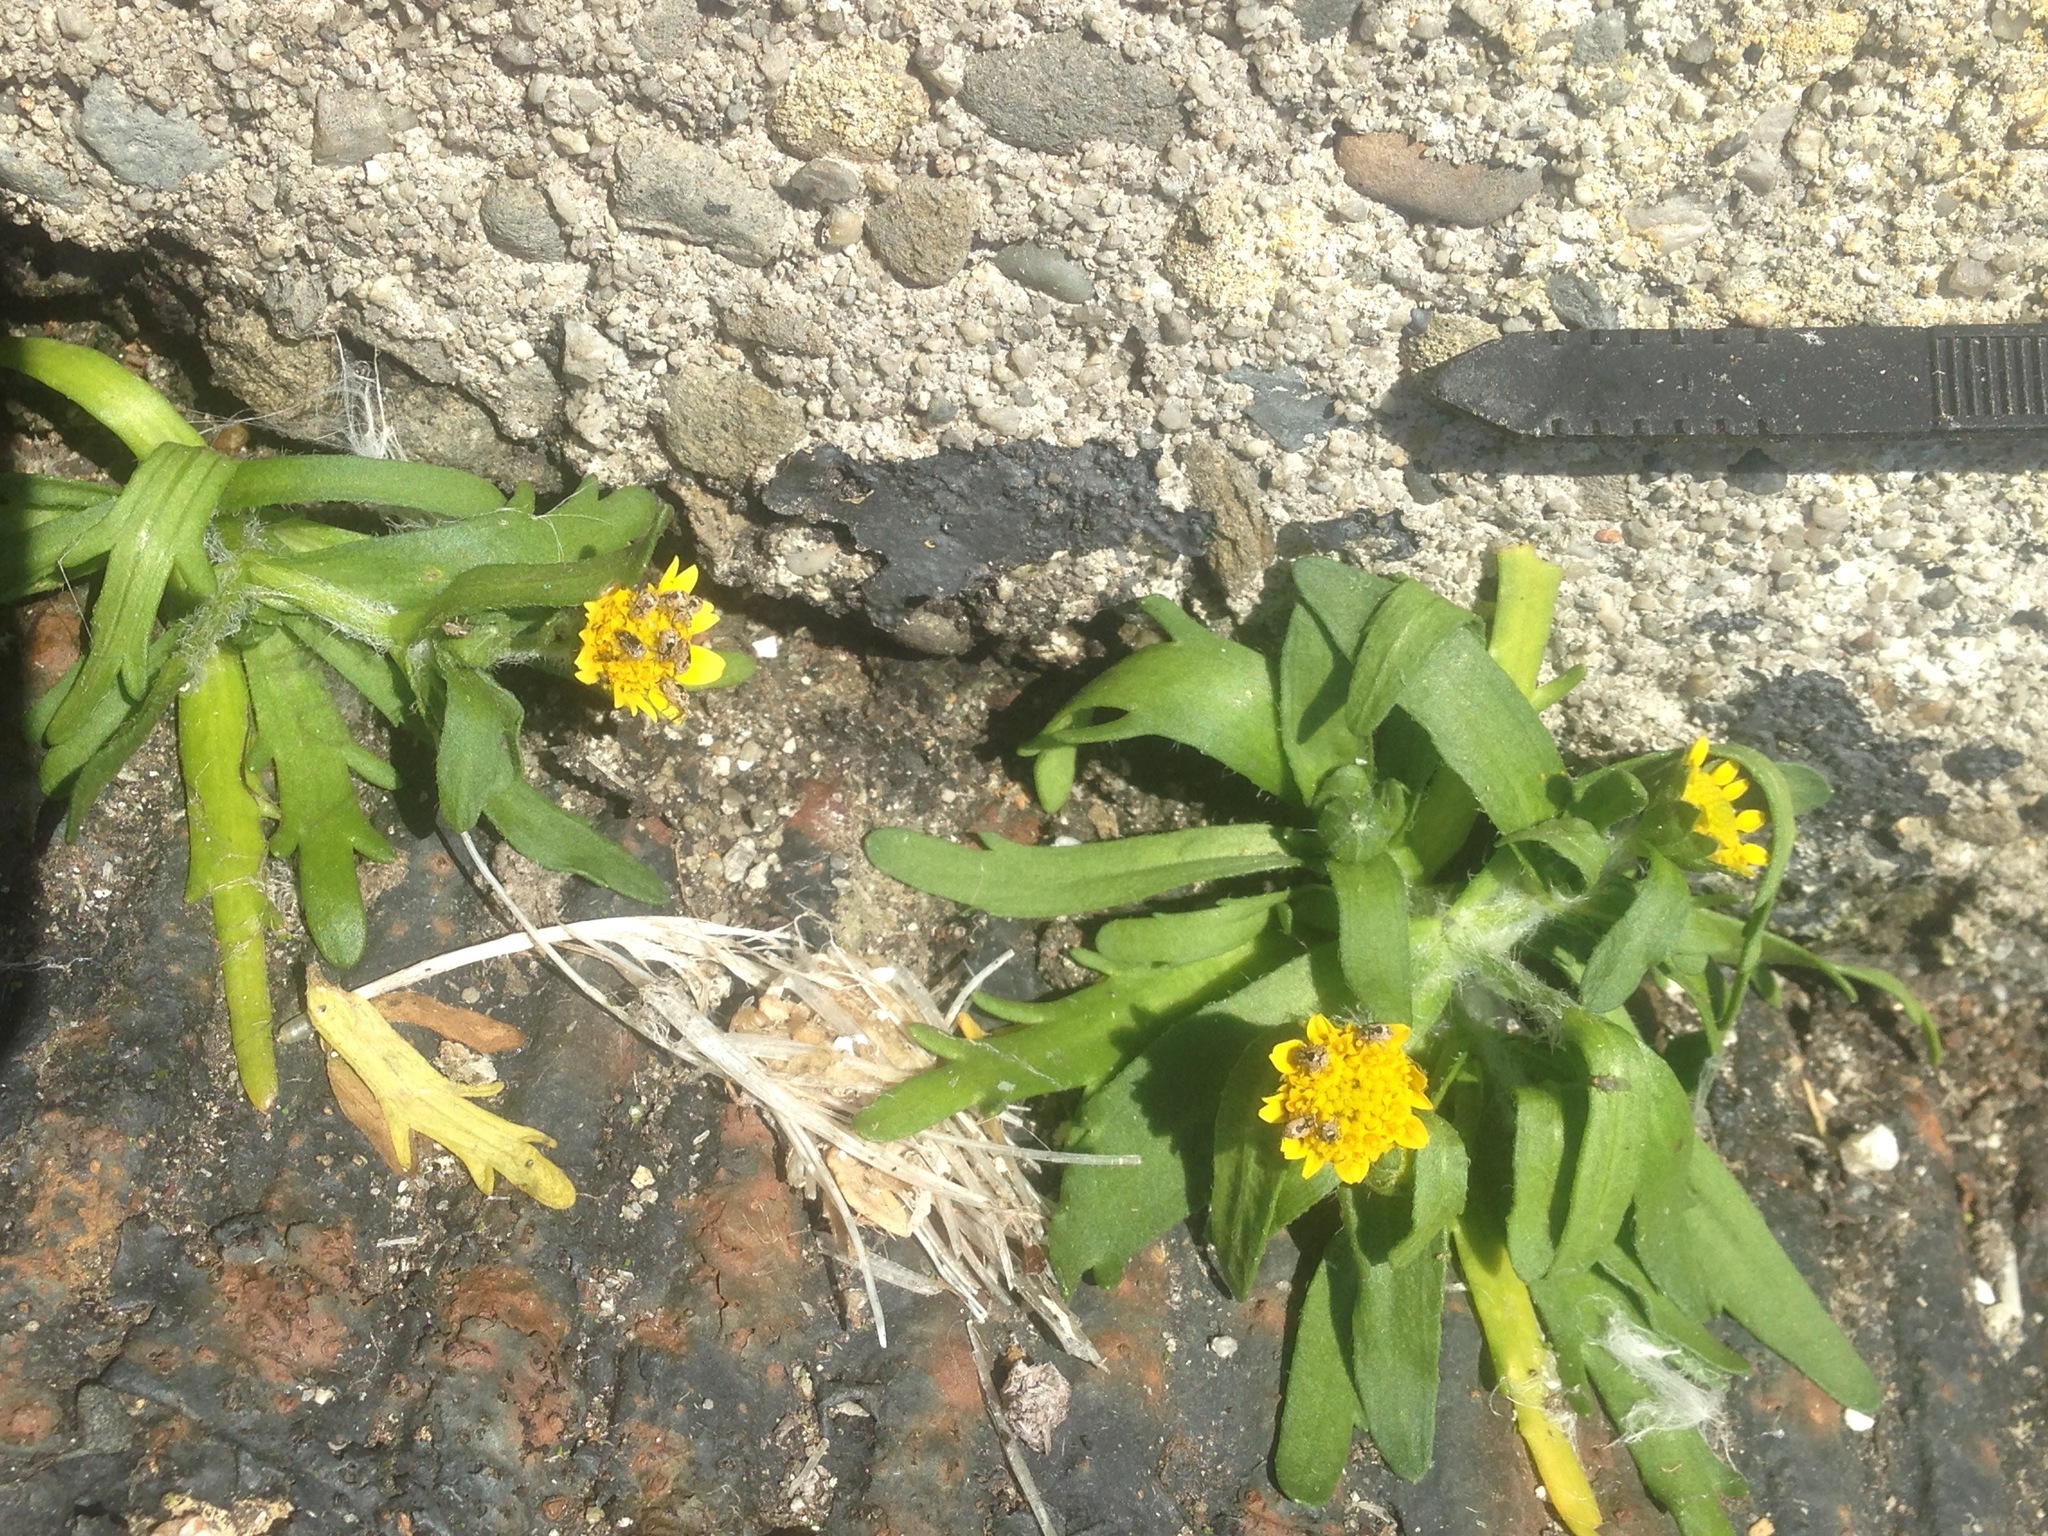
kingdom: Plantae
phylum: Tracheophyta
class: Magnoliopsida
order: Asterales
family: Asteraceae
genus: Lasthenia
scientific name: Lasthenia maritima
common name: Hairy goldfields
